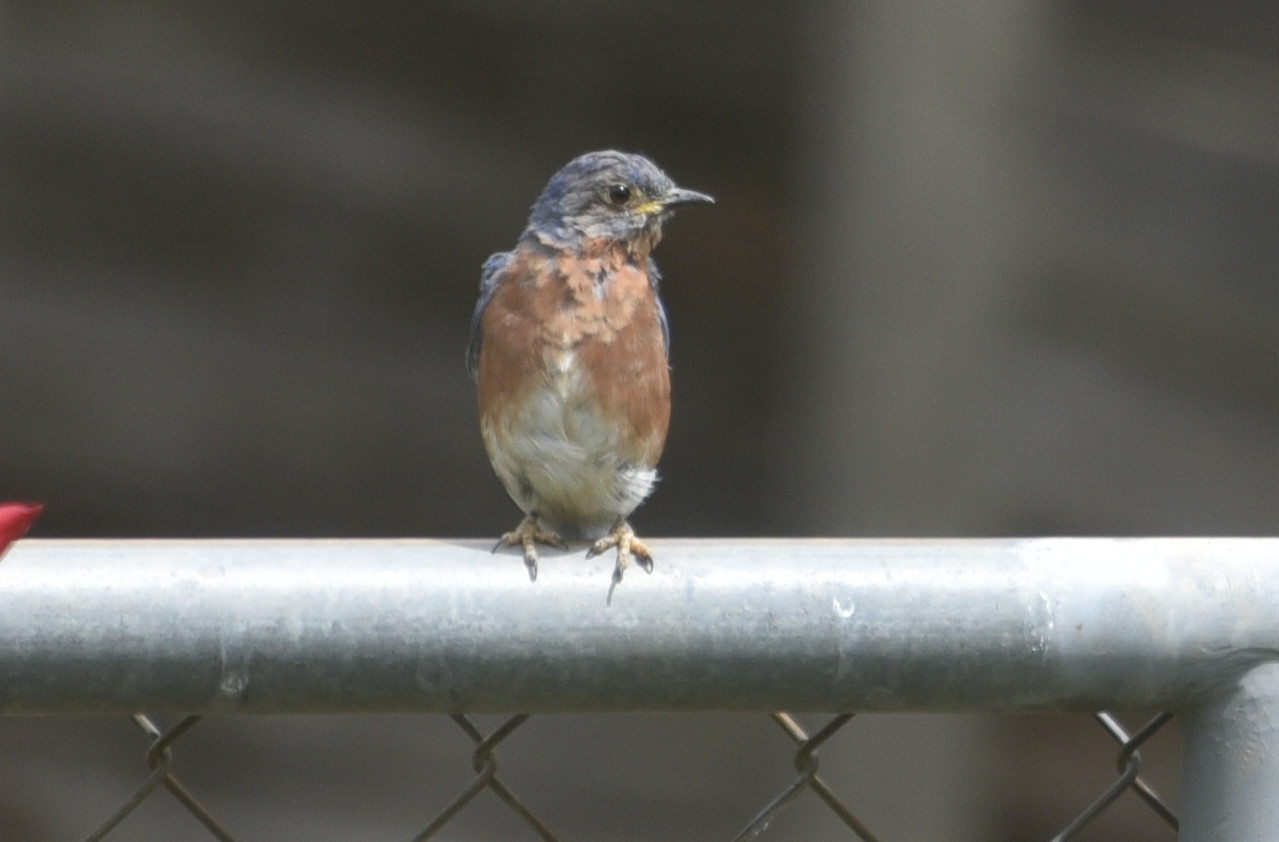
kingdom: Animalia
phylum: Chordata
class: Aves
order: Passeriformes
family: Turdidae
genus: Sialia
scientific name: Sialia sialis
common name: Eastern bluebird
